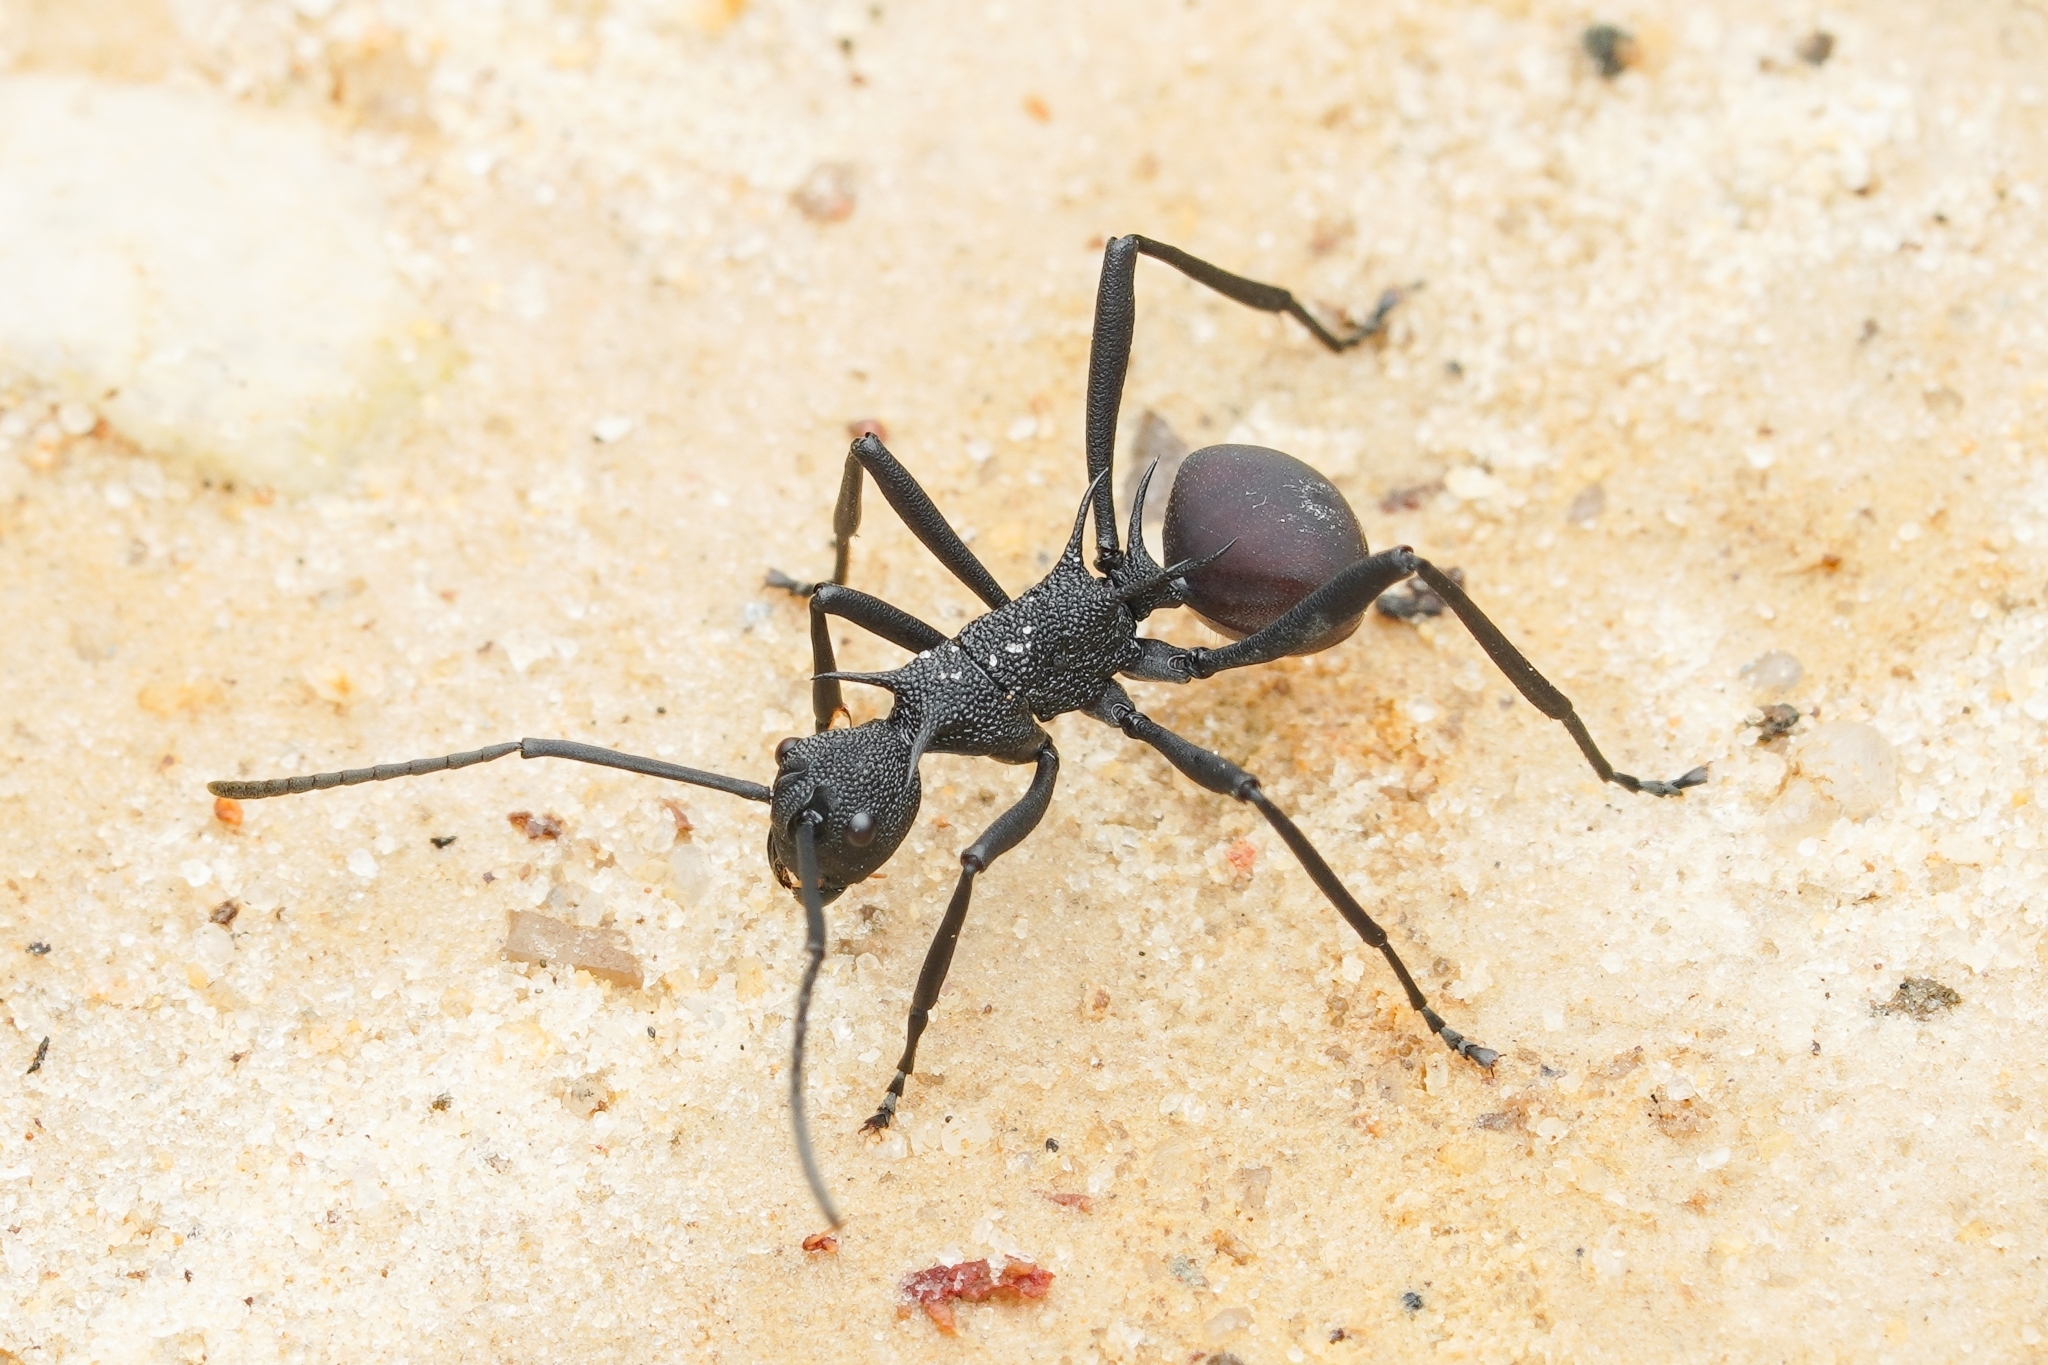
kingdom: Animalia
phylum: Arthropoda
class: Insecta
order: Hymenoptera
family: Formicidae
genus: Polyrhachis
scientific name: Polyrhachis armata
